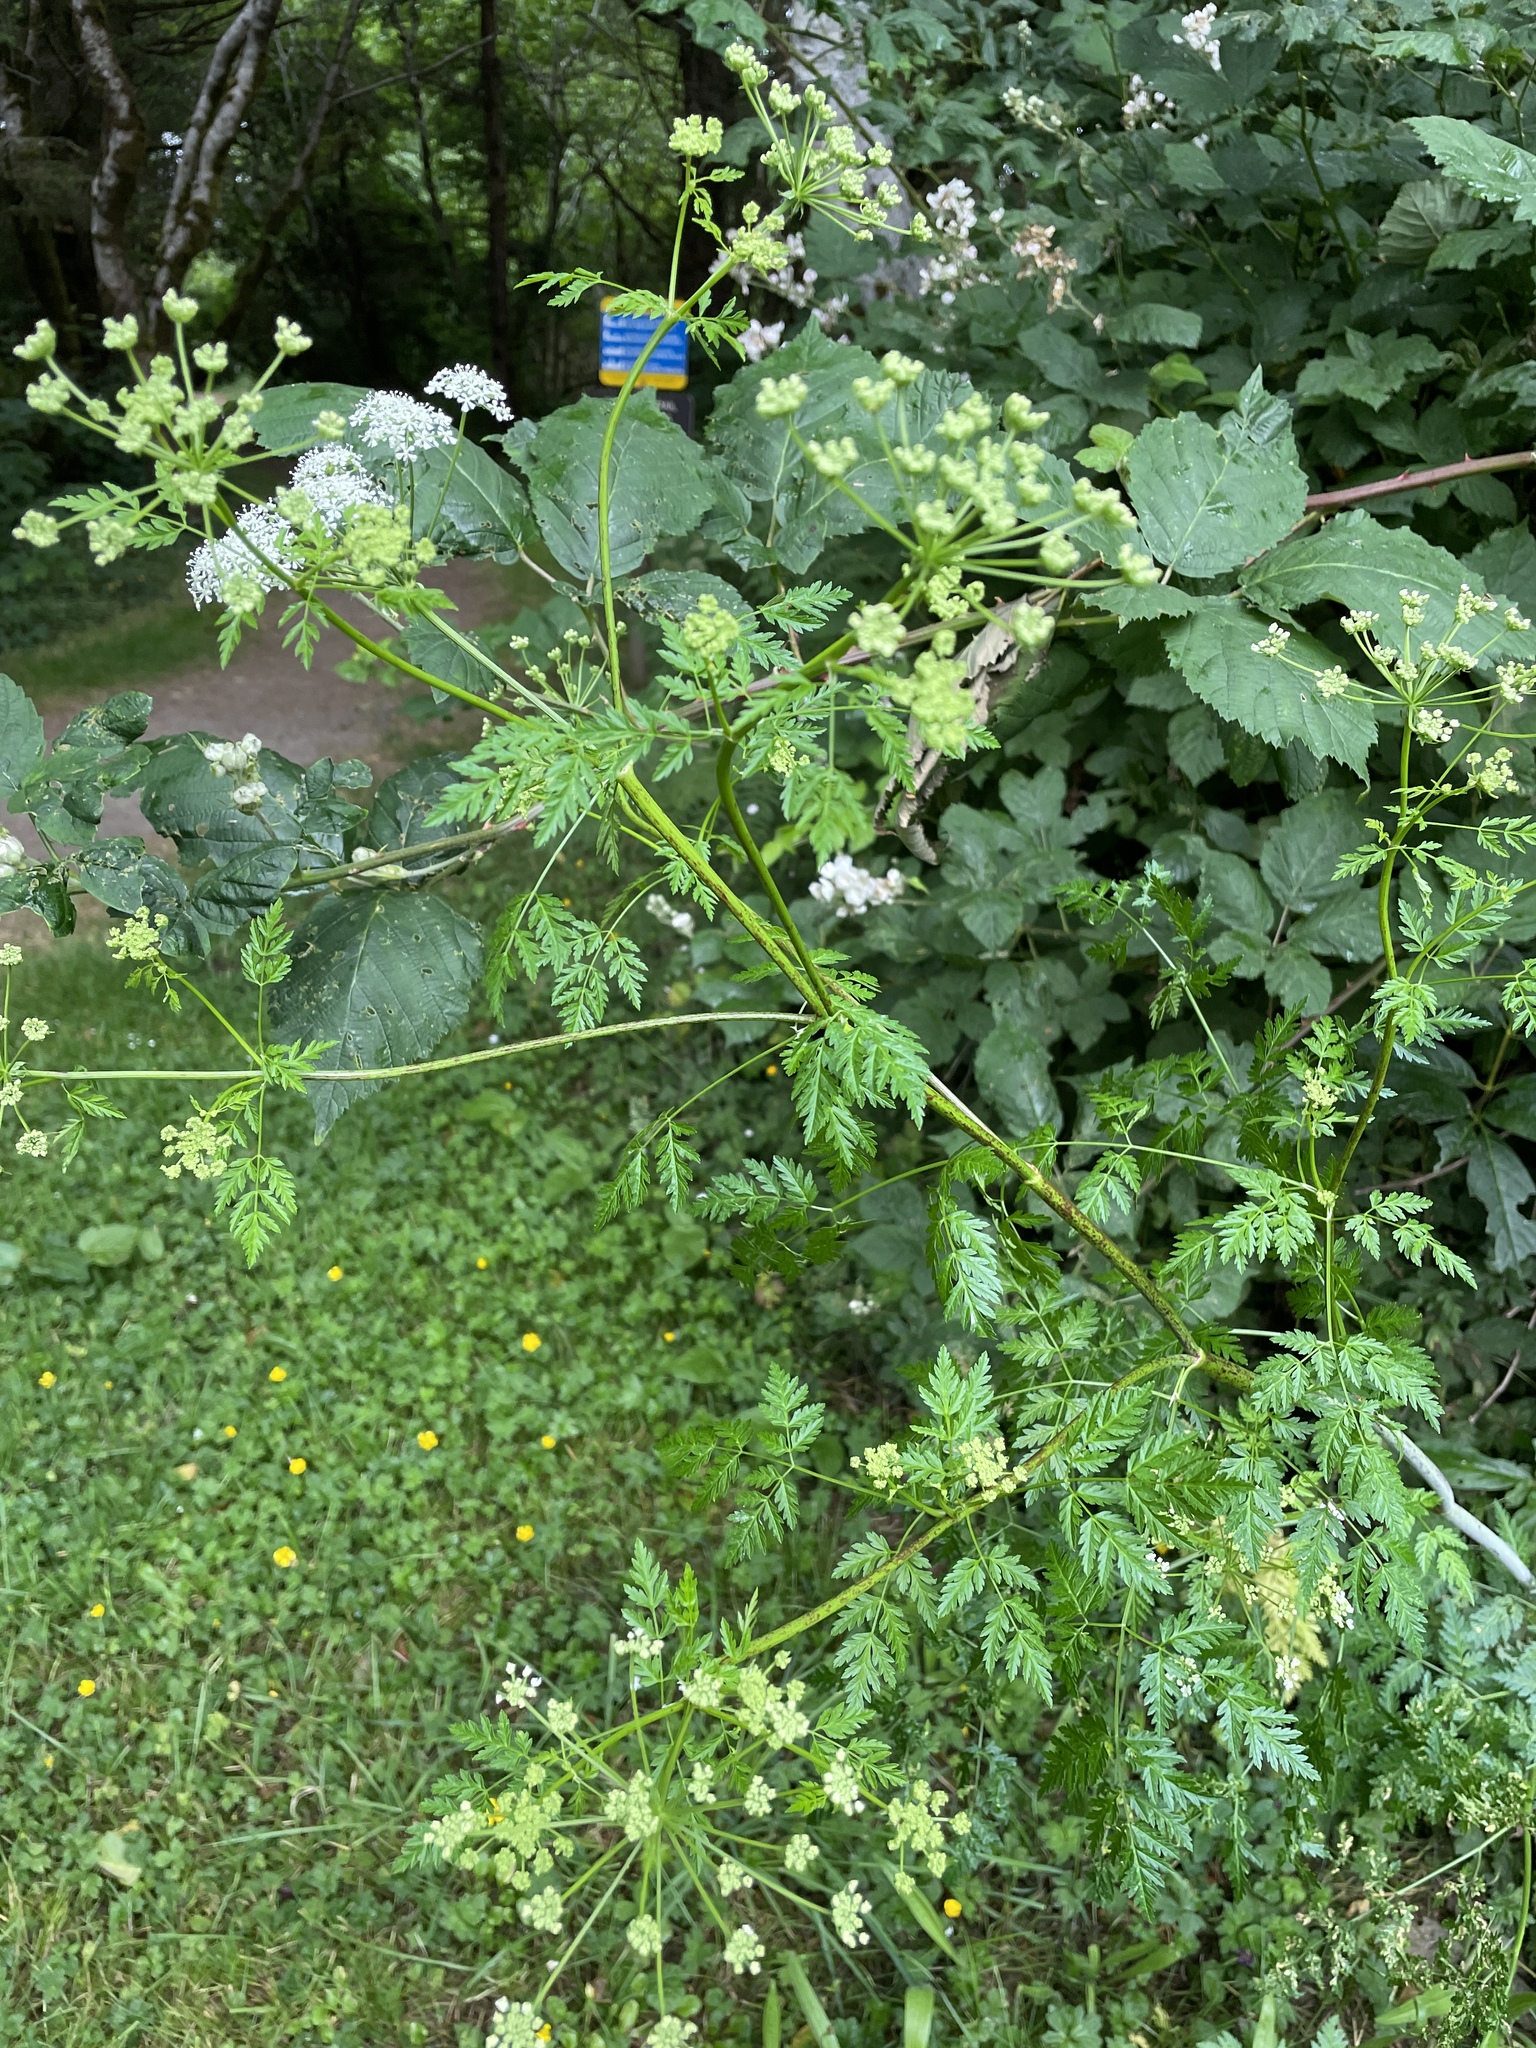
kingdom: Plantae
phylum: Tracheophyta
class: Magnoliopsida
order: Apiales
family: Apiaceae
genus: Conium
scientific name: Conium maculatum
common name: Hemlock
